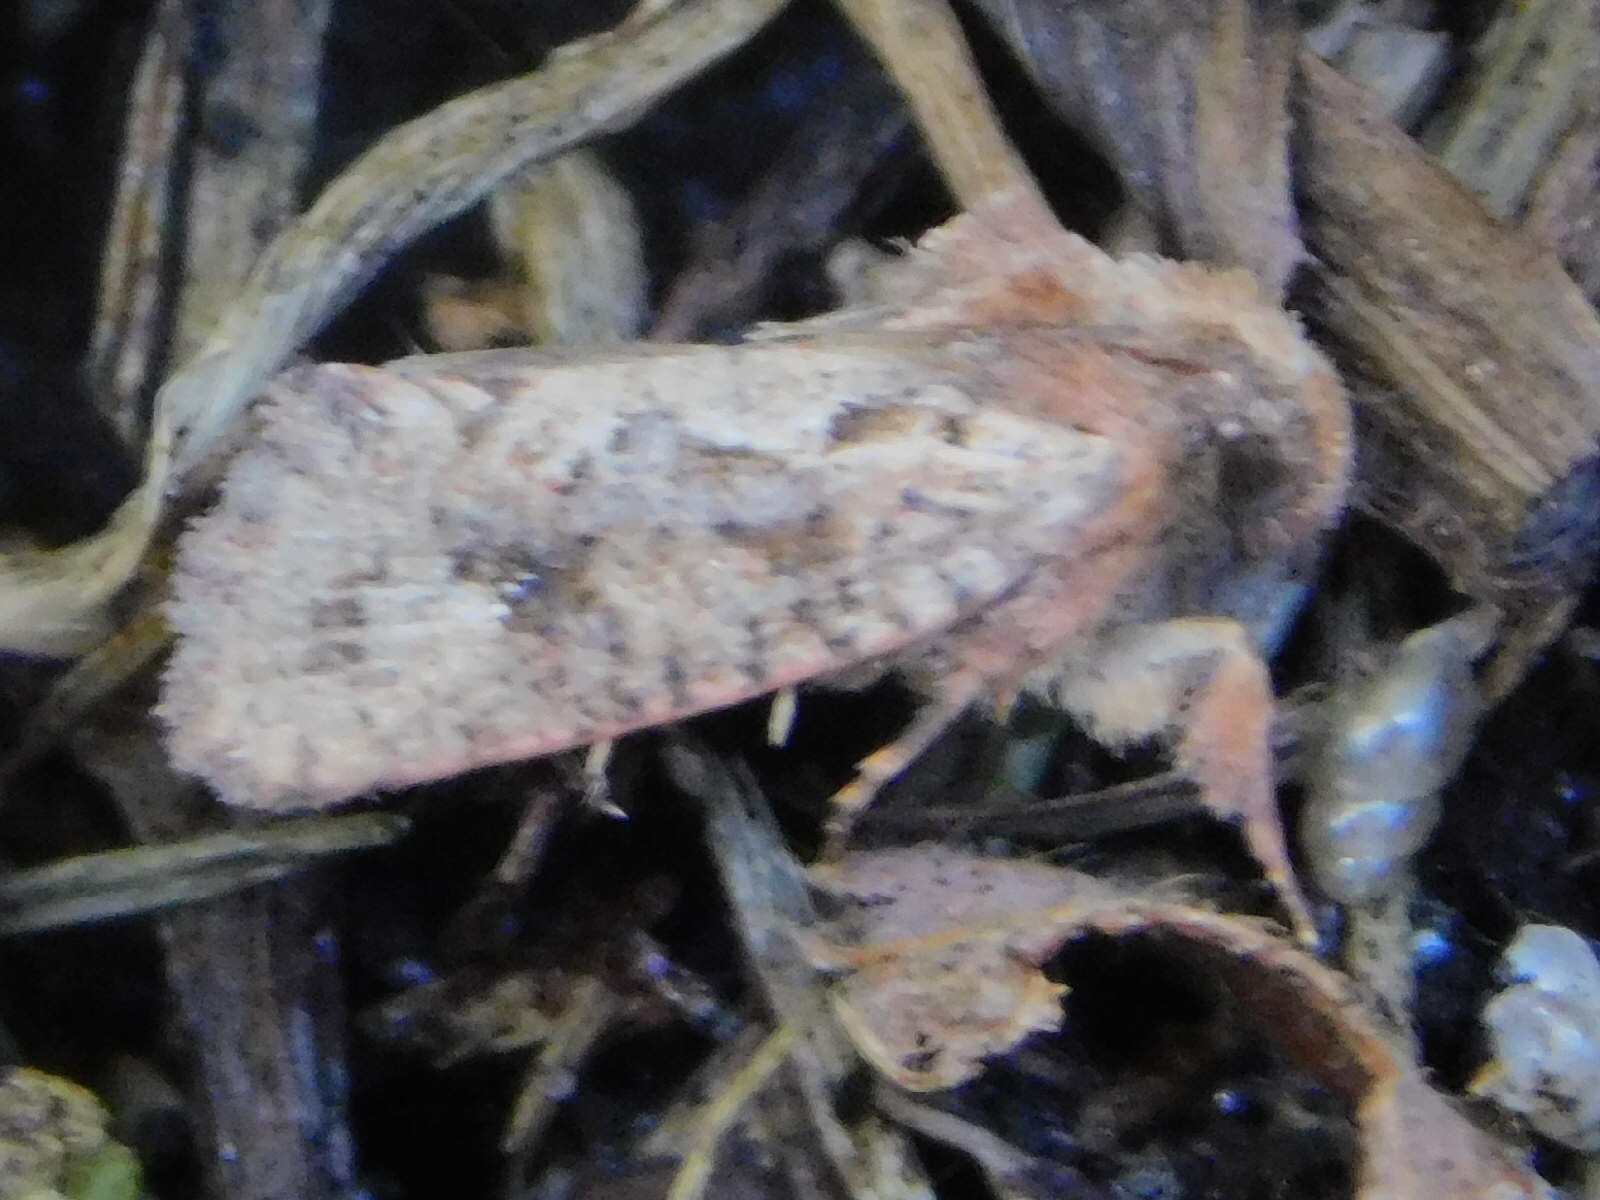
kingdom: Animalia
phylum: Arthropoda
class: Insecta
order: Lepidoptera
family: Tineidae
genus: Acrolophus
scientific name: Acrolophus walsinghami
